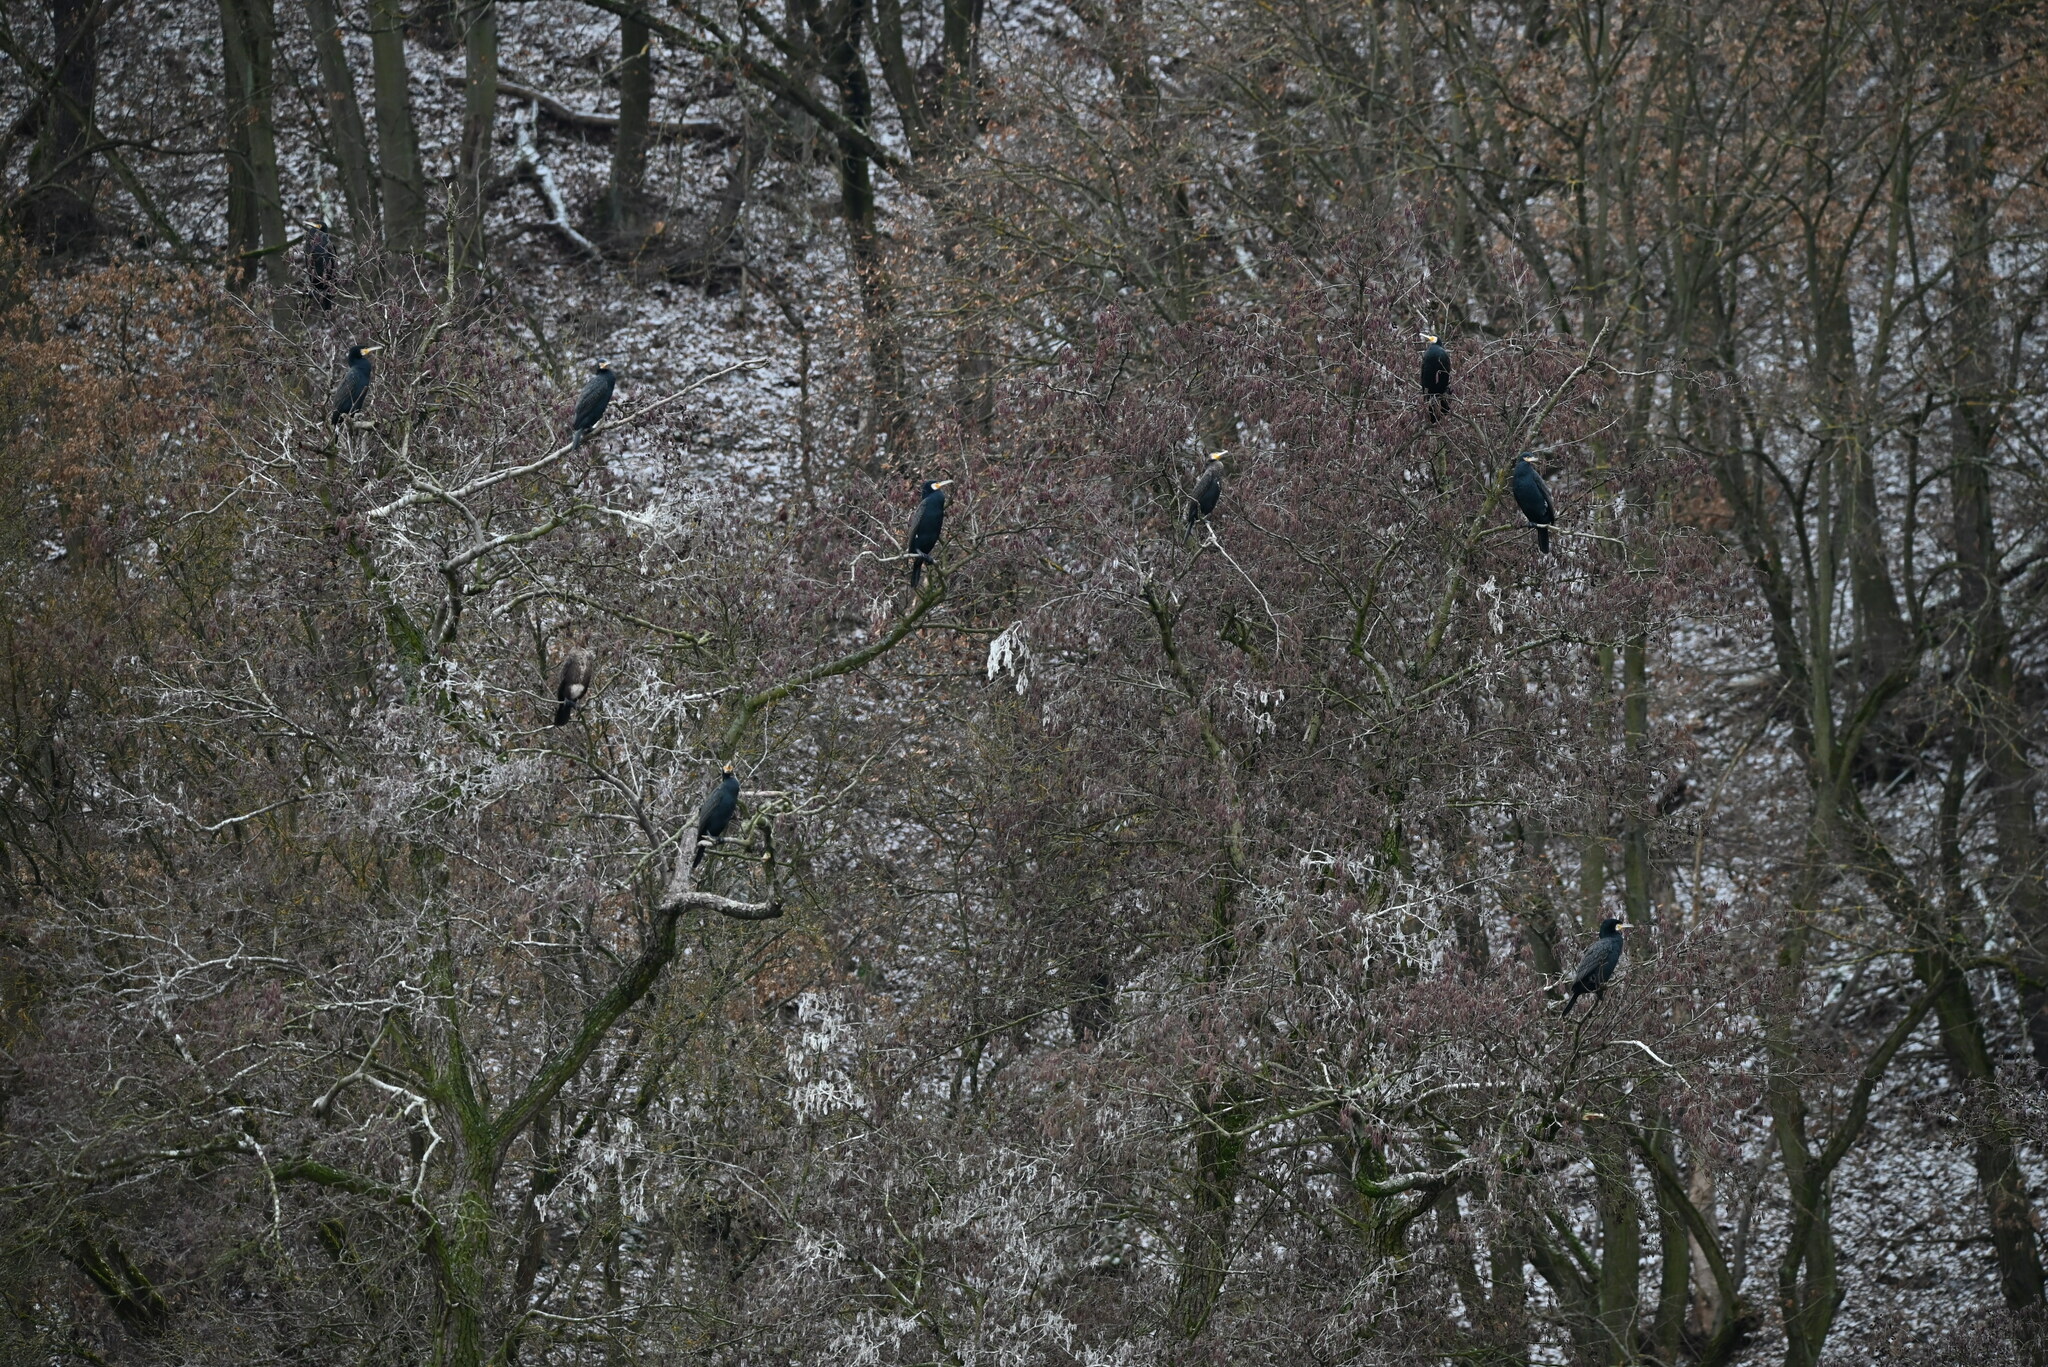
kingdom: Animalia
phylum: Chordata
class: Aves
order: Suliformes
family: Phalacrocoracidae
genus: Phalacrocorax
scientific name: Phalacrocorax carbo
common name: Great cormorant
